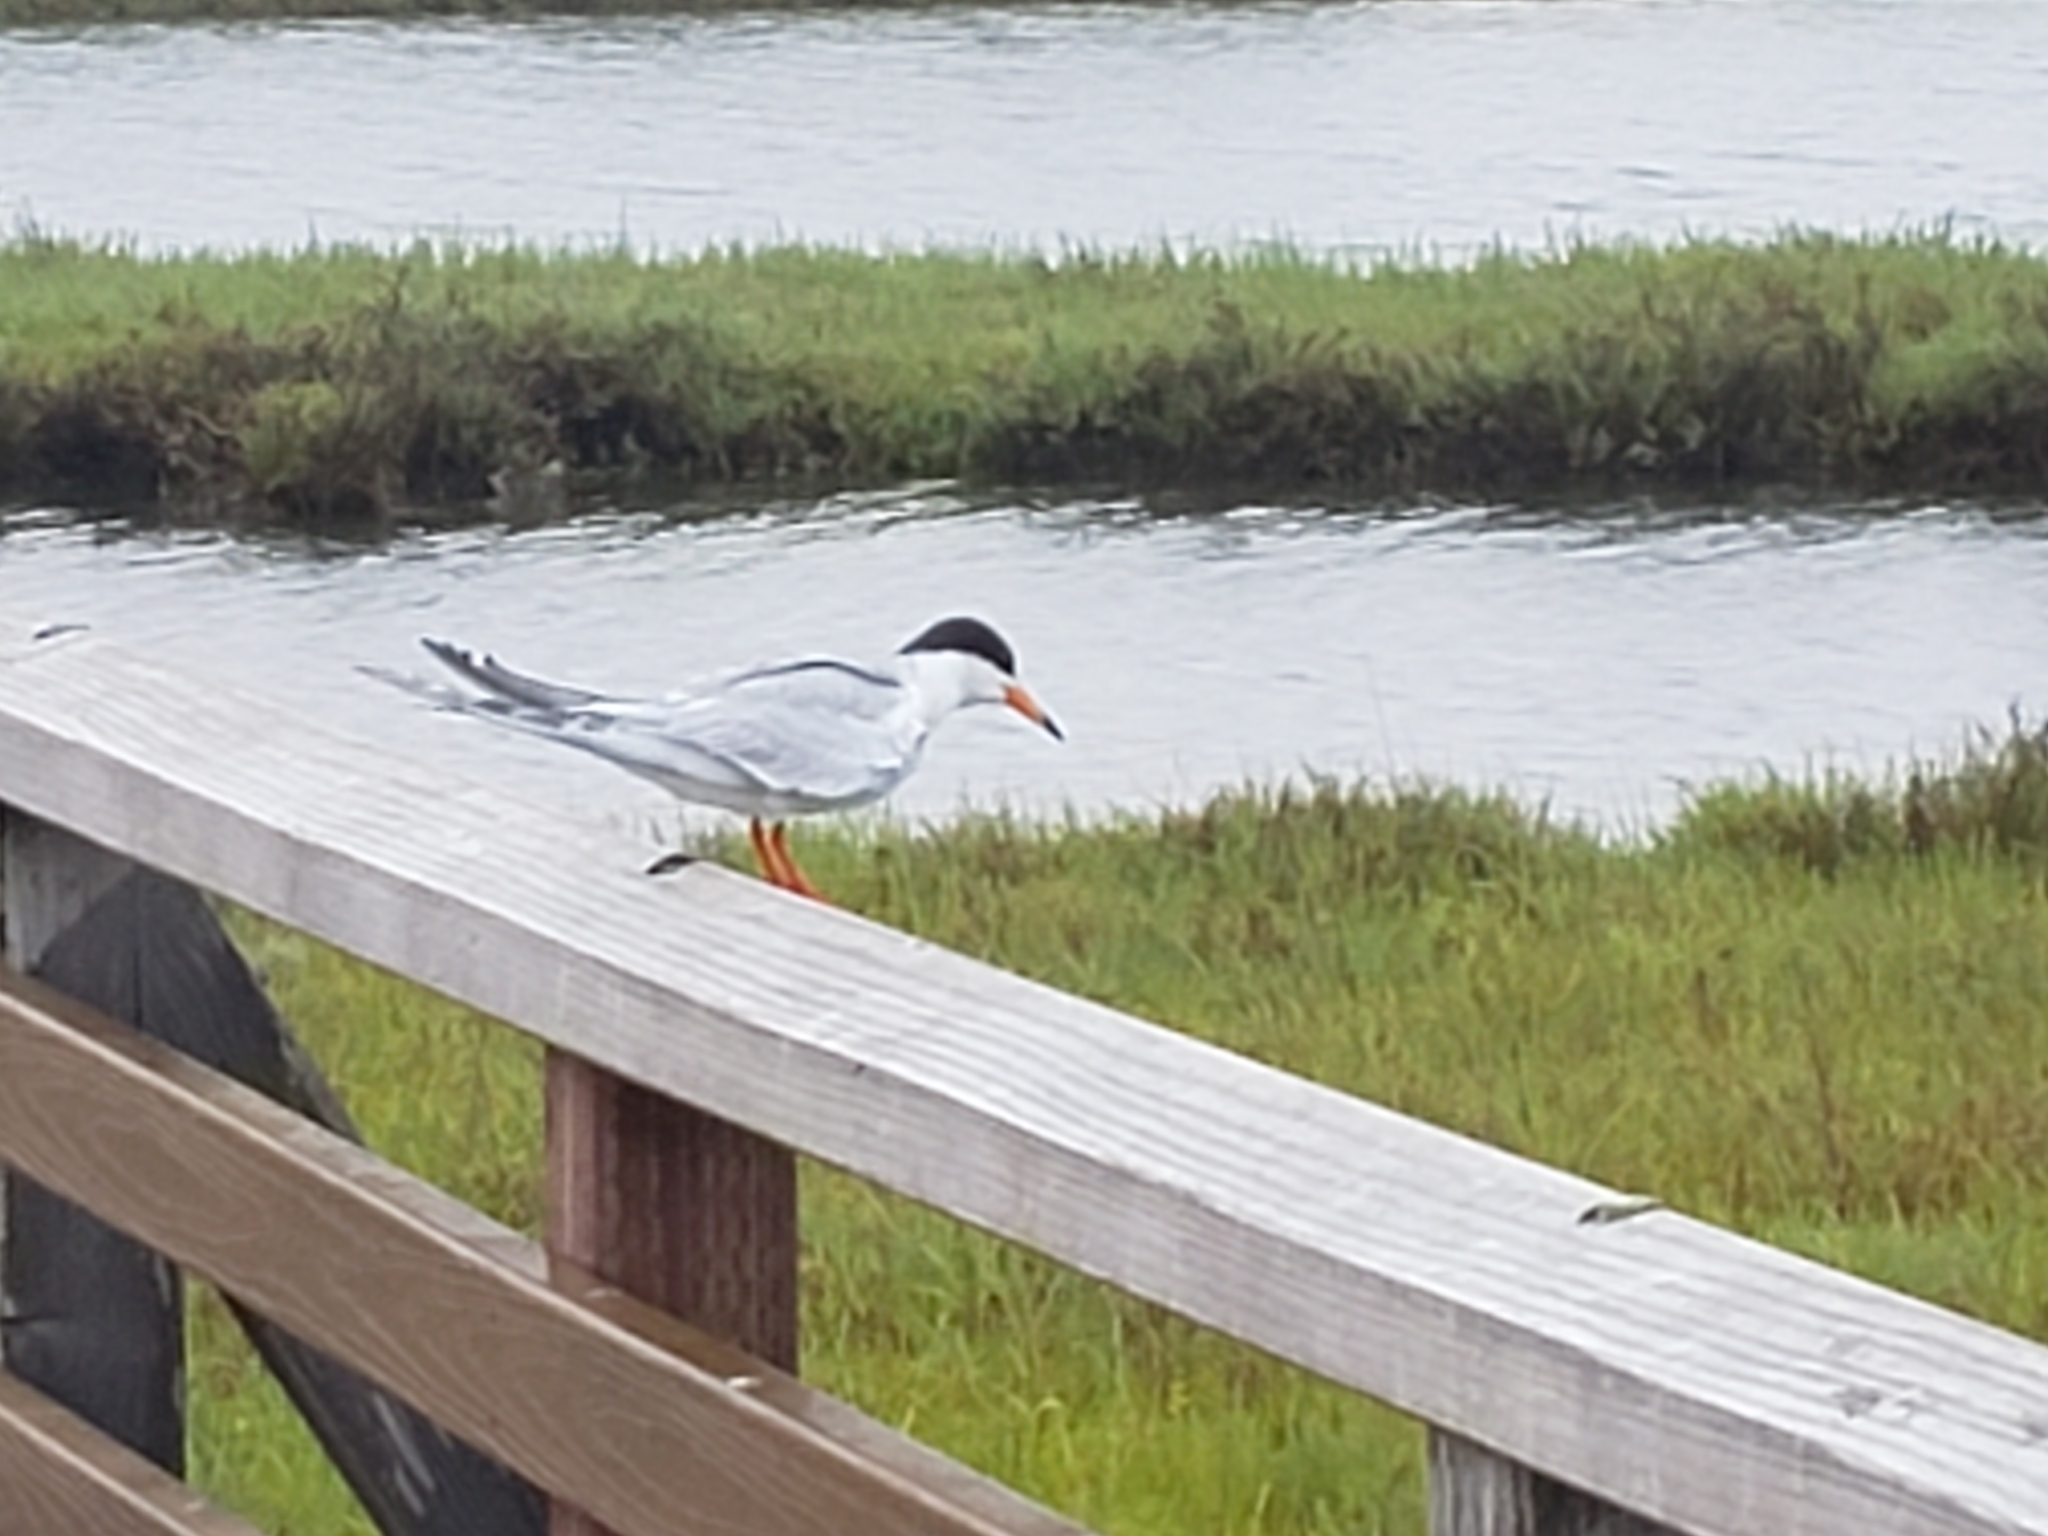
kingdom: Animalia
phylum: Chordata
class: Aves
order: Charadriiformes
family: Laridae
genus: Sterna
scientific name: Sterna forsteri
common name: Forster's tern
